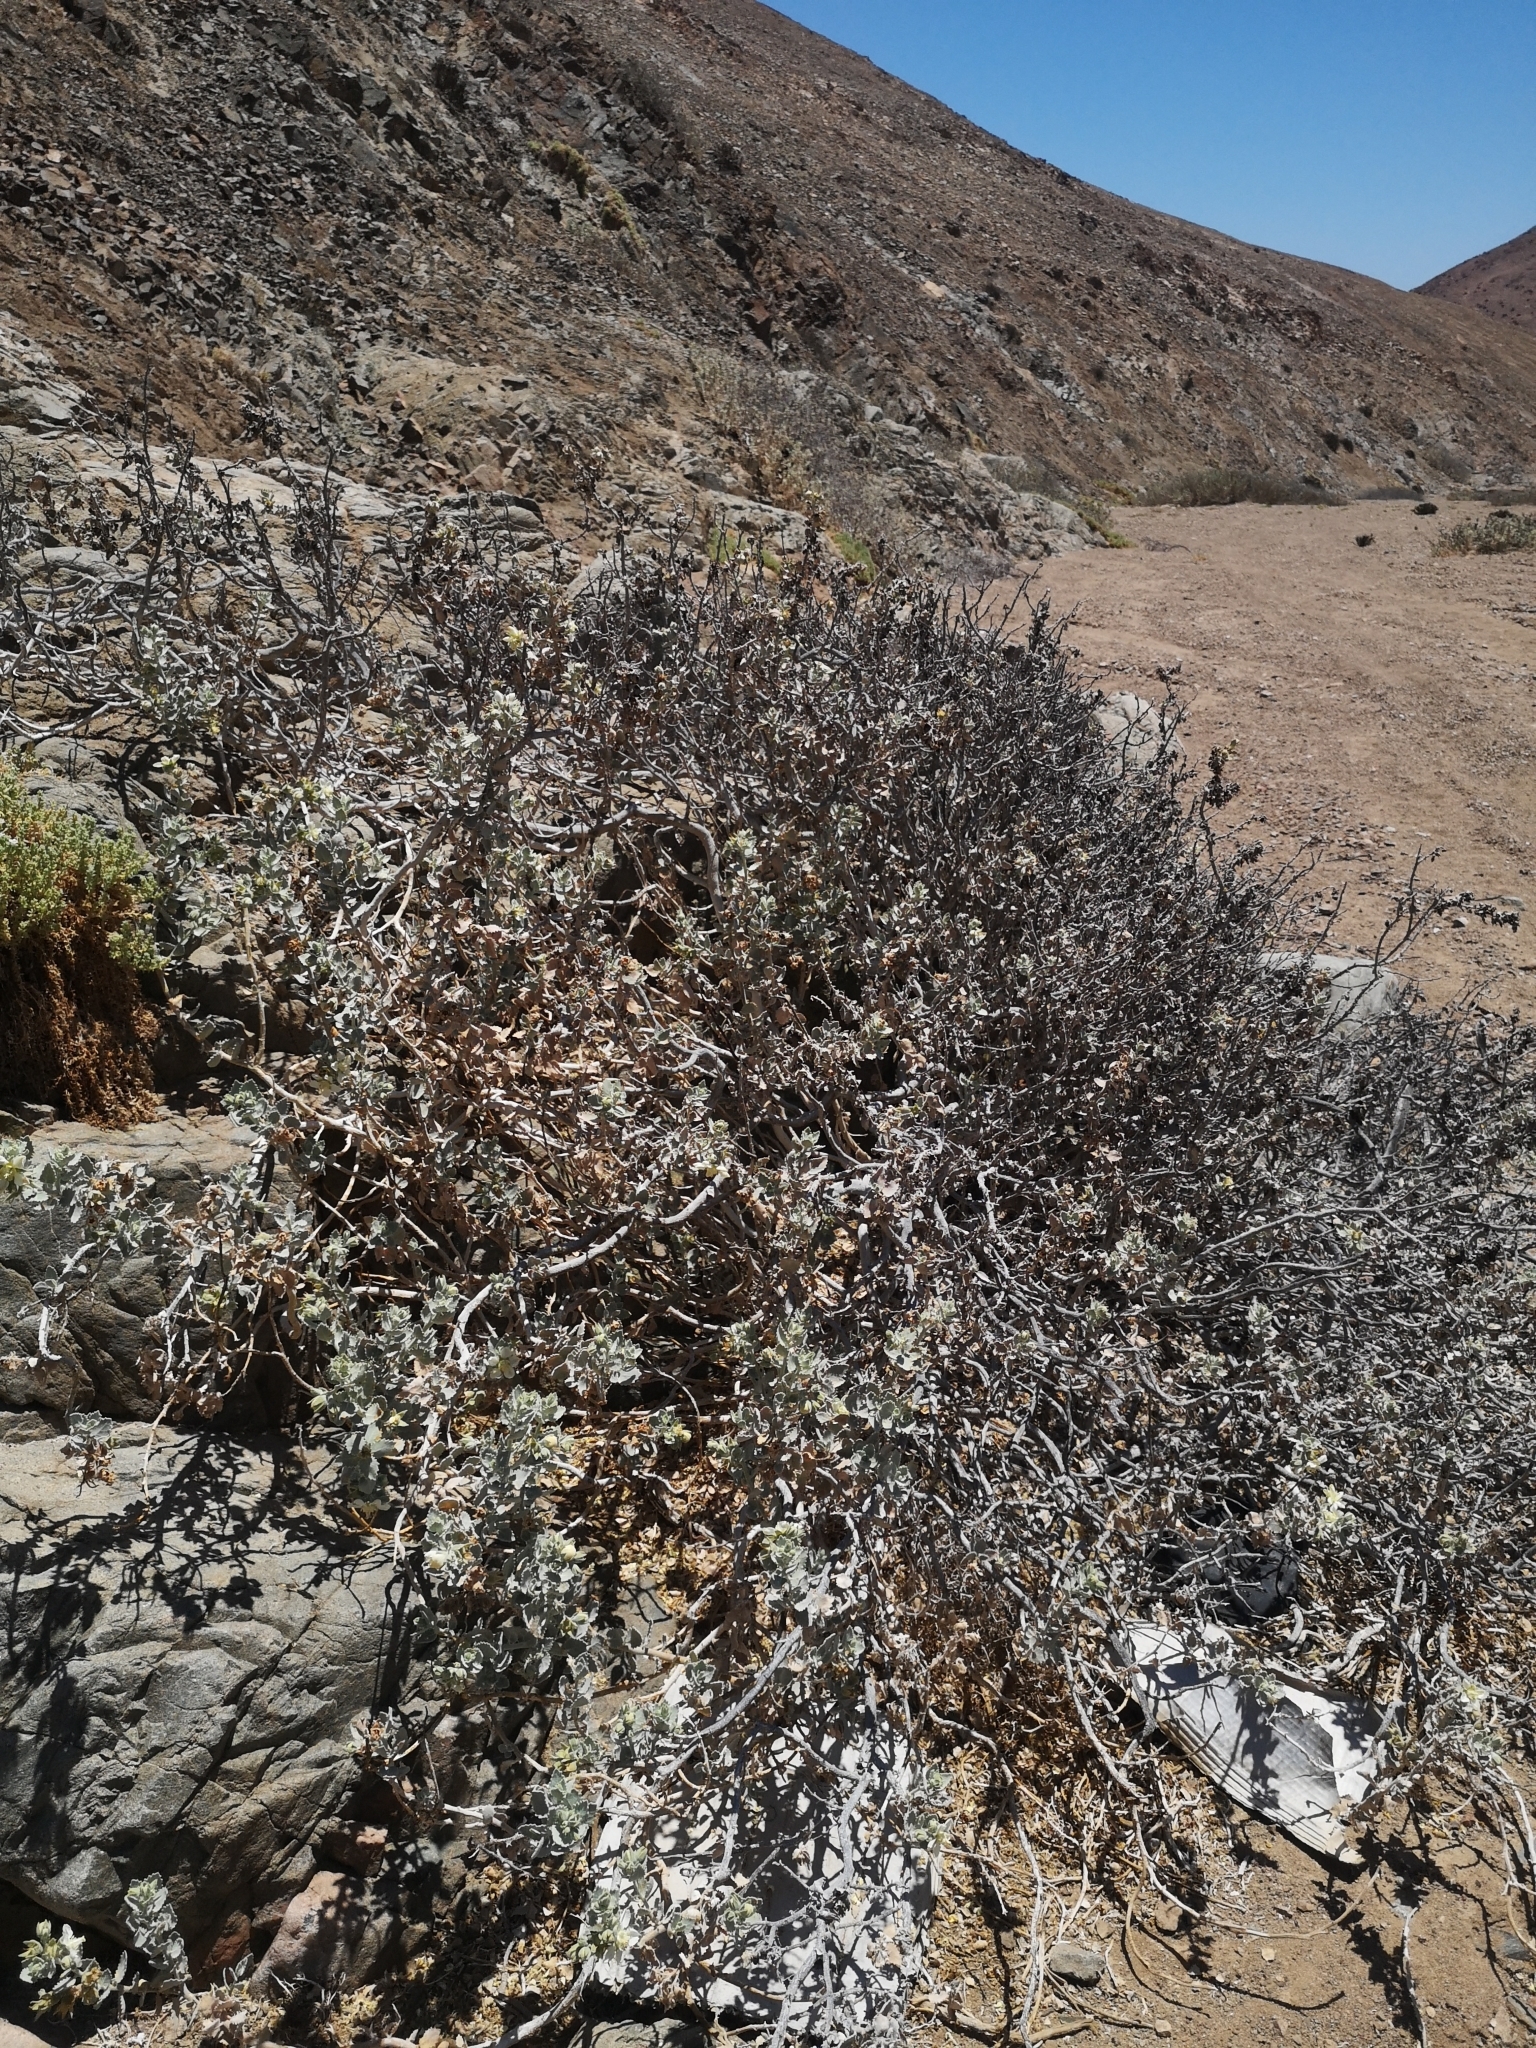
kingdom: Plantae
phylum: Tracheophyta
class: Magnoliopsida
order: Cornales
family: Loasaceae
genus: Huidobria
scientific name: Huidobria fruticosa
